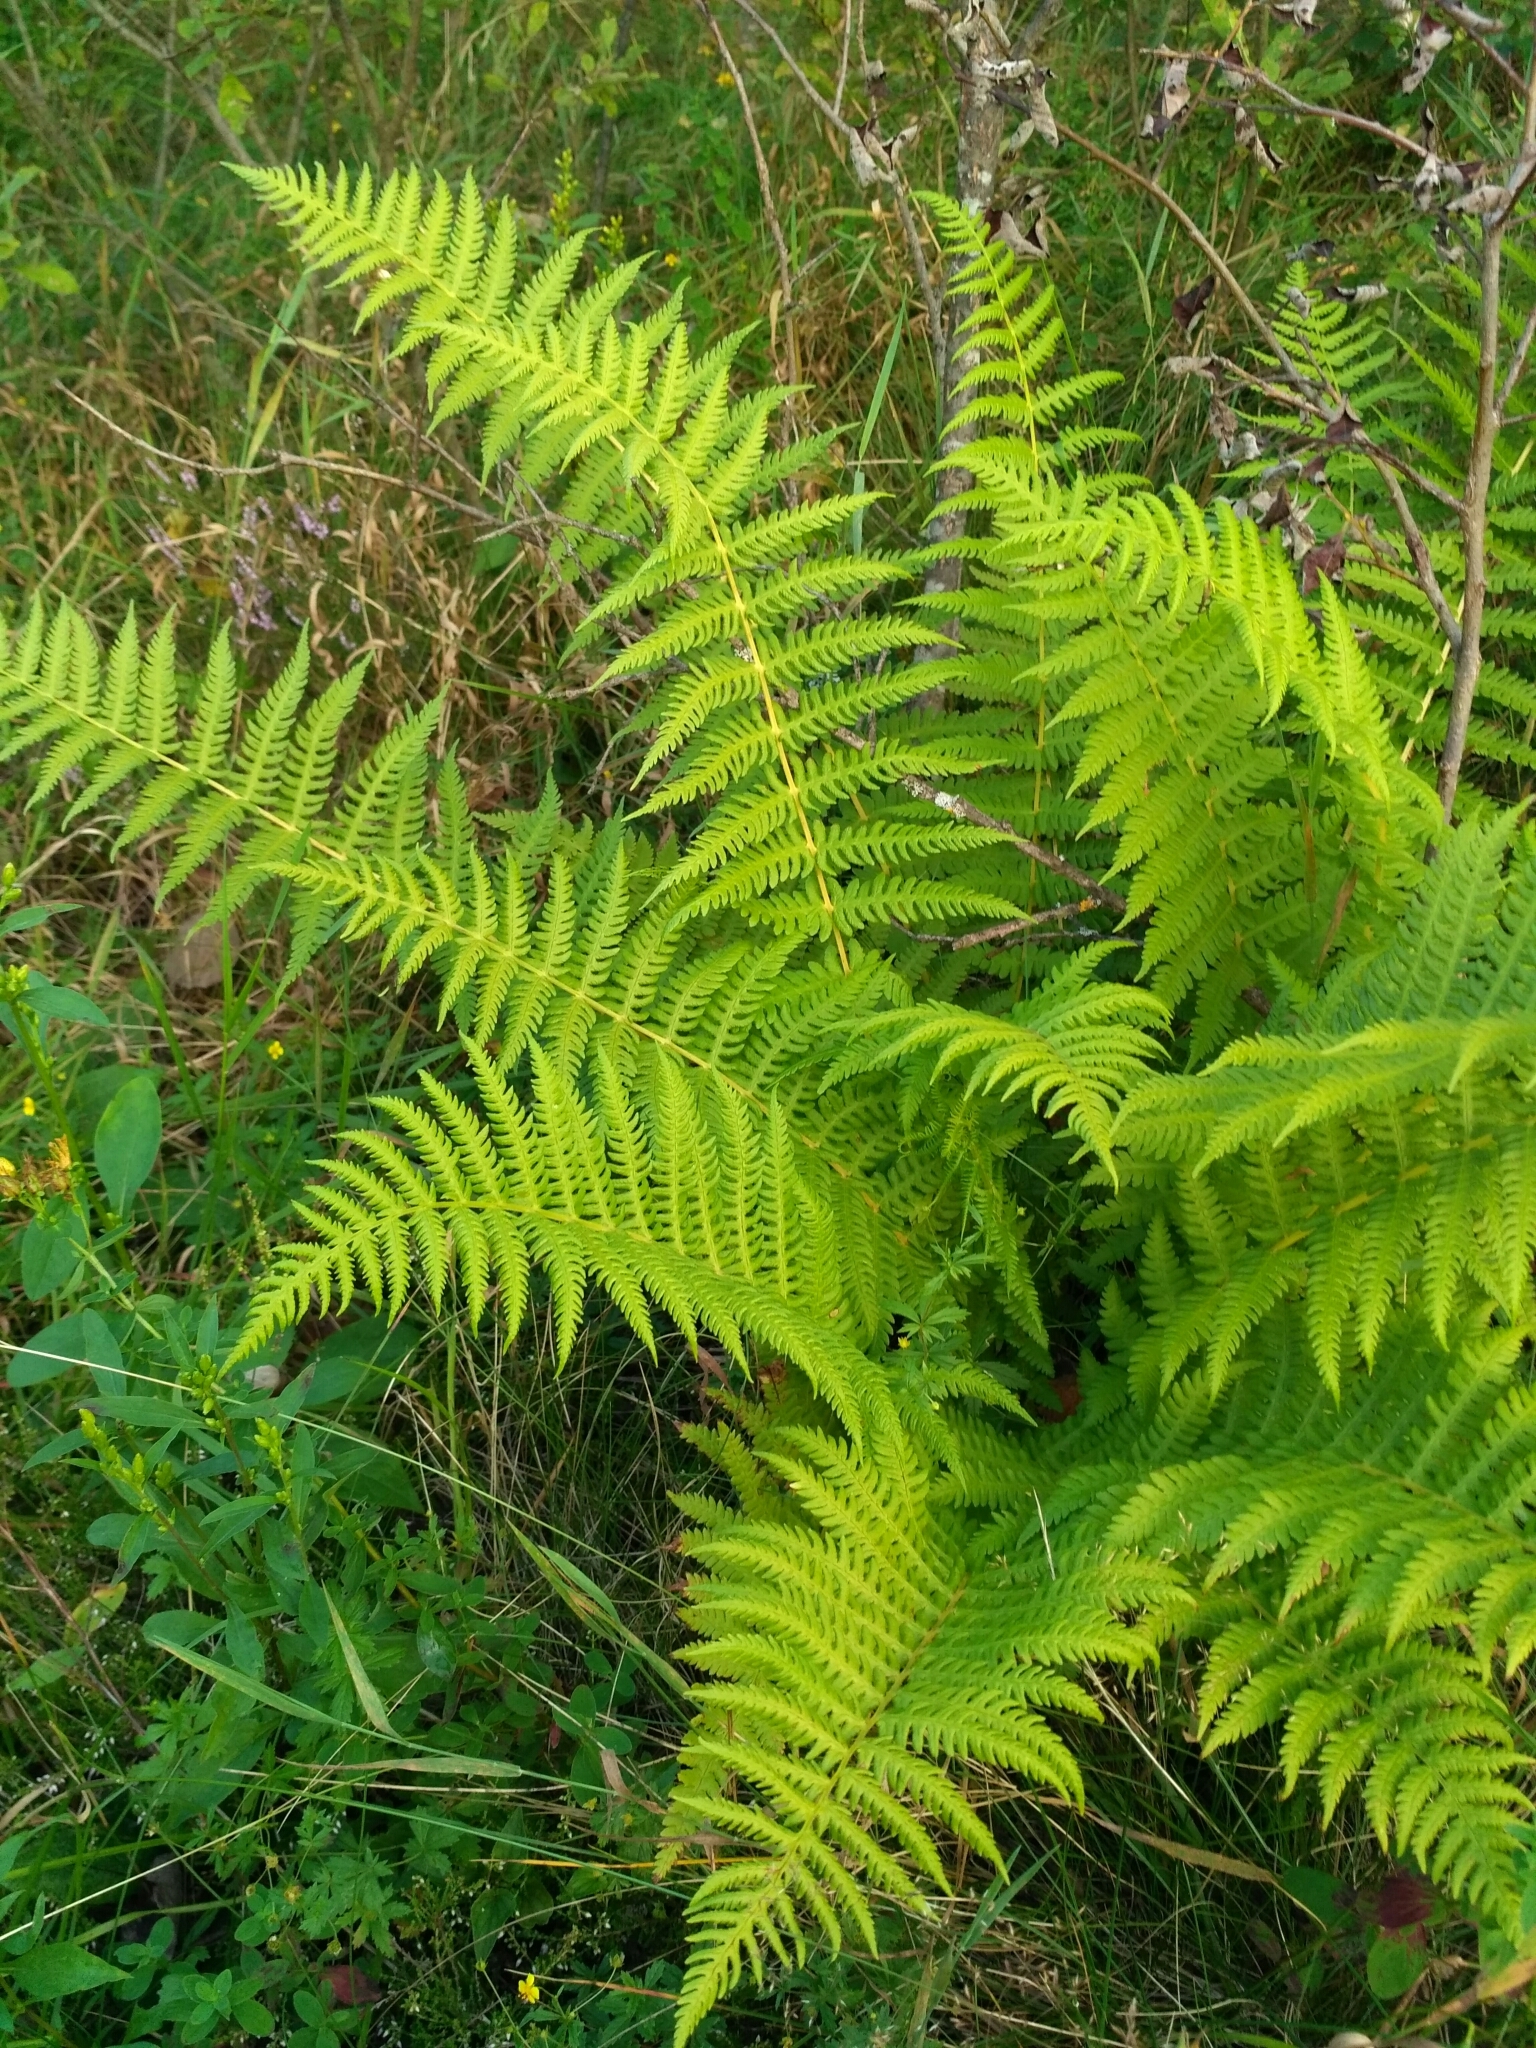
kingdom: Plantae
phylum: Tracheophyta
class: Polypodiopsida
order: Polypodiales
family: Thelypteridaceae
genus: Oreopteris
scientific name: Oreopteris limbosperma
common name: Lemon-scented fern
